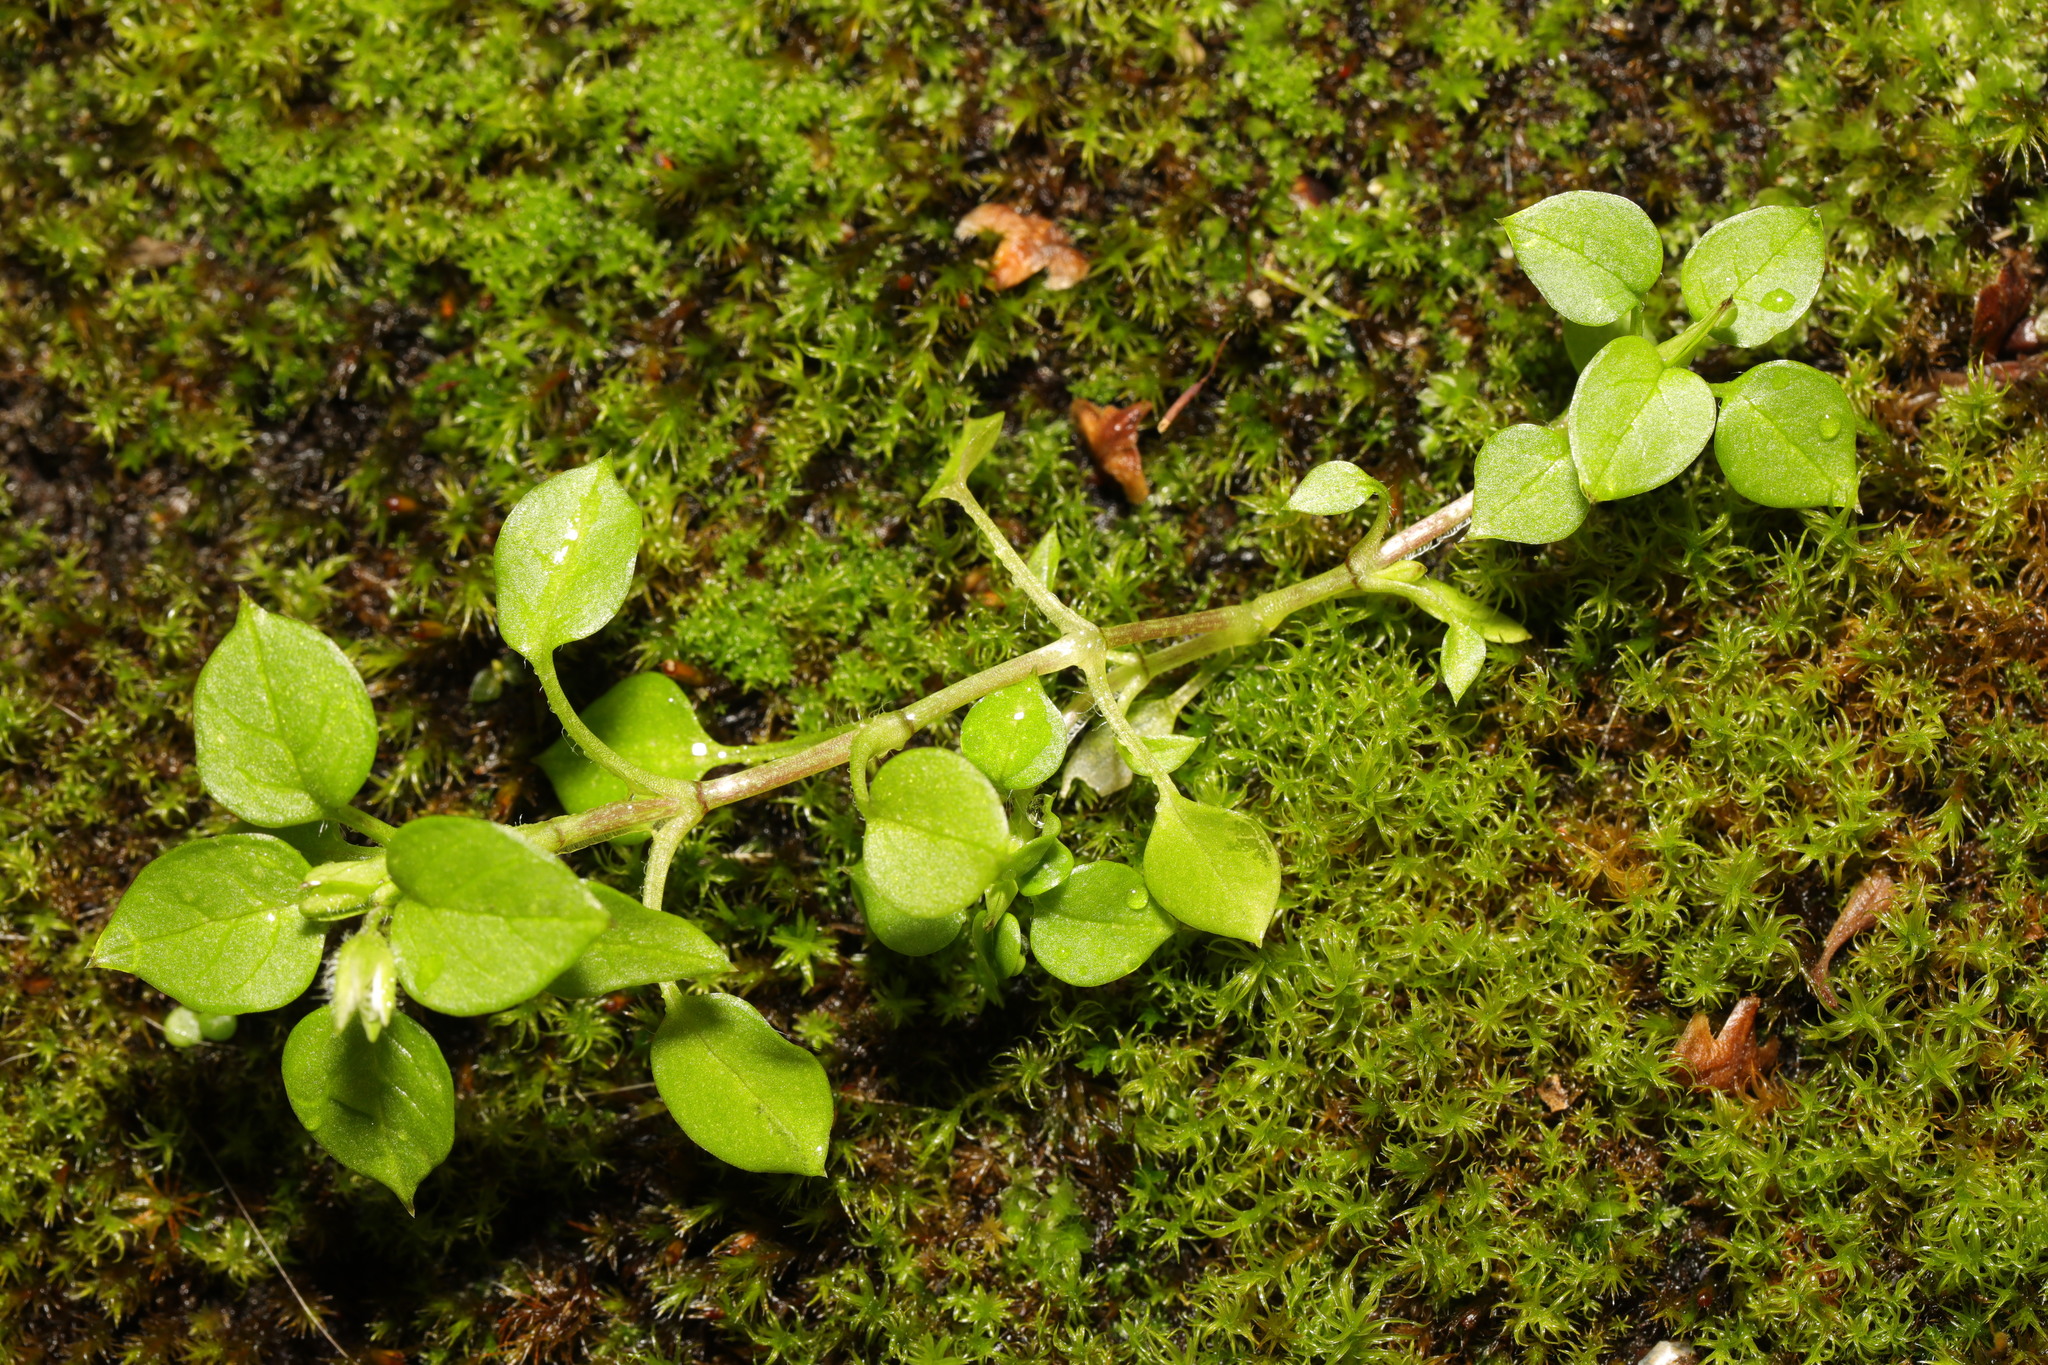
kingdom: Plantae
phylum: Tracheophyta
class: Magnoliopsida
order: Caryophyllales
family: Caryophyllaceae
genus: Stellaria
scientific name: Stellaria media
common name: Common chickweed
